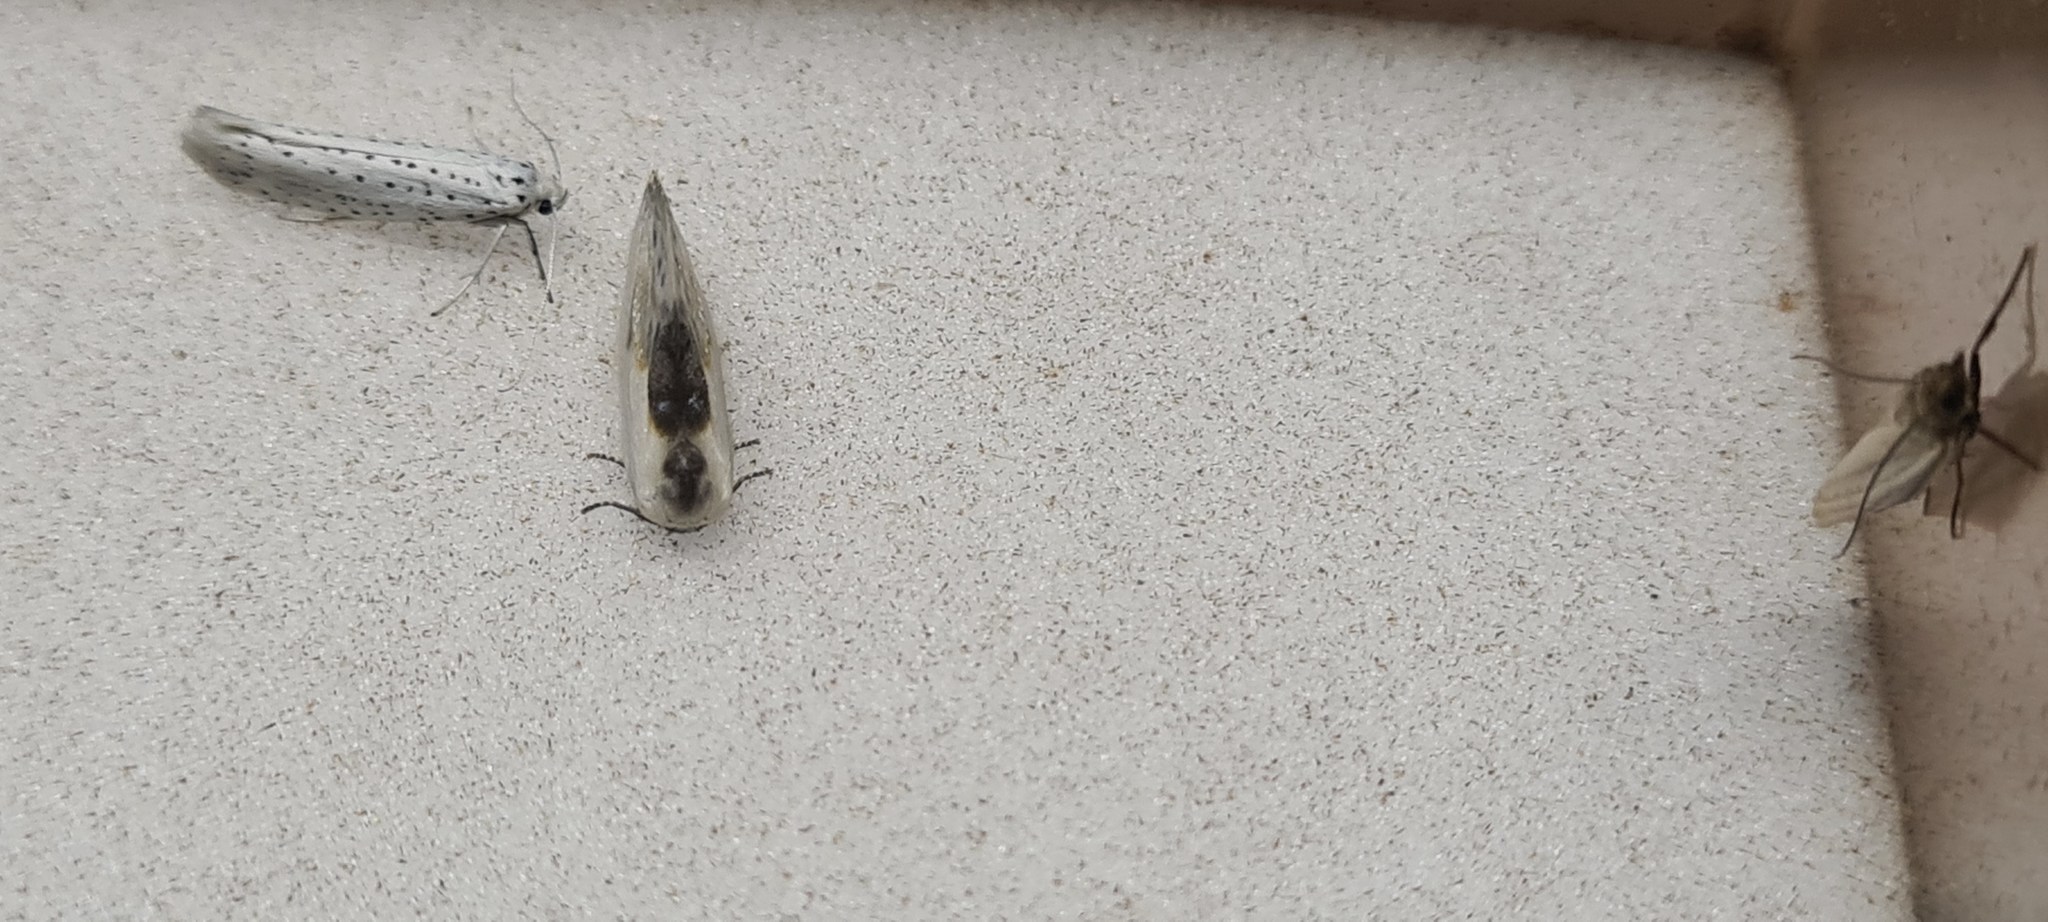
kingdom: Animalia
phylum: Arthropoda
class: Insecta
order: Lepidoptera
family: Drepanidae
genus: Cilix
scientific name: Cilix glaucata
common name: Chinese character
